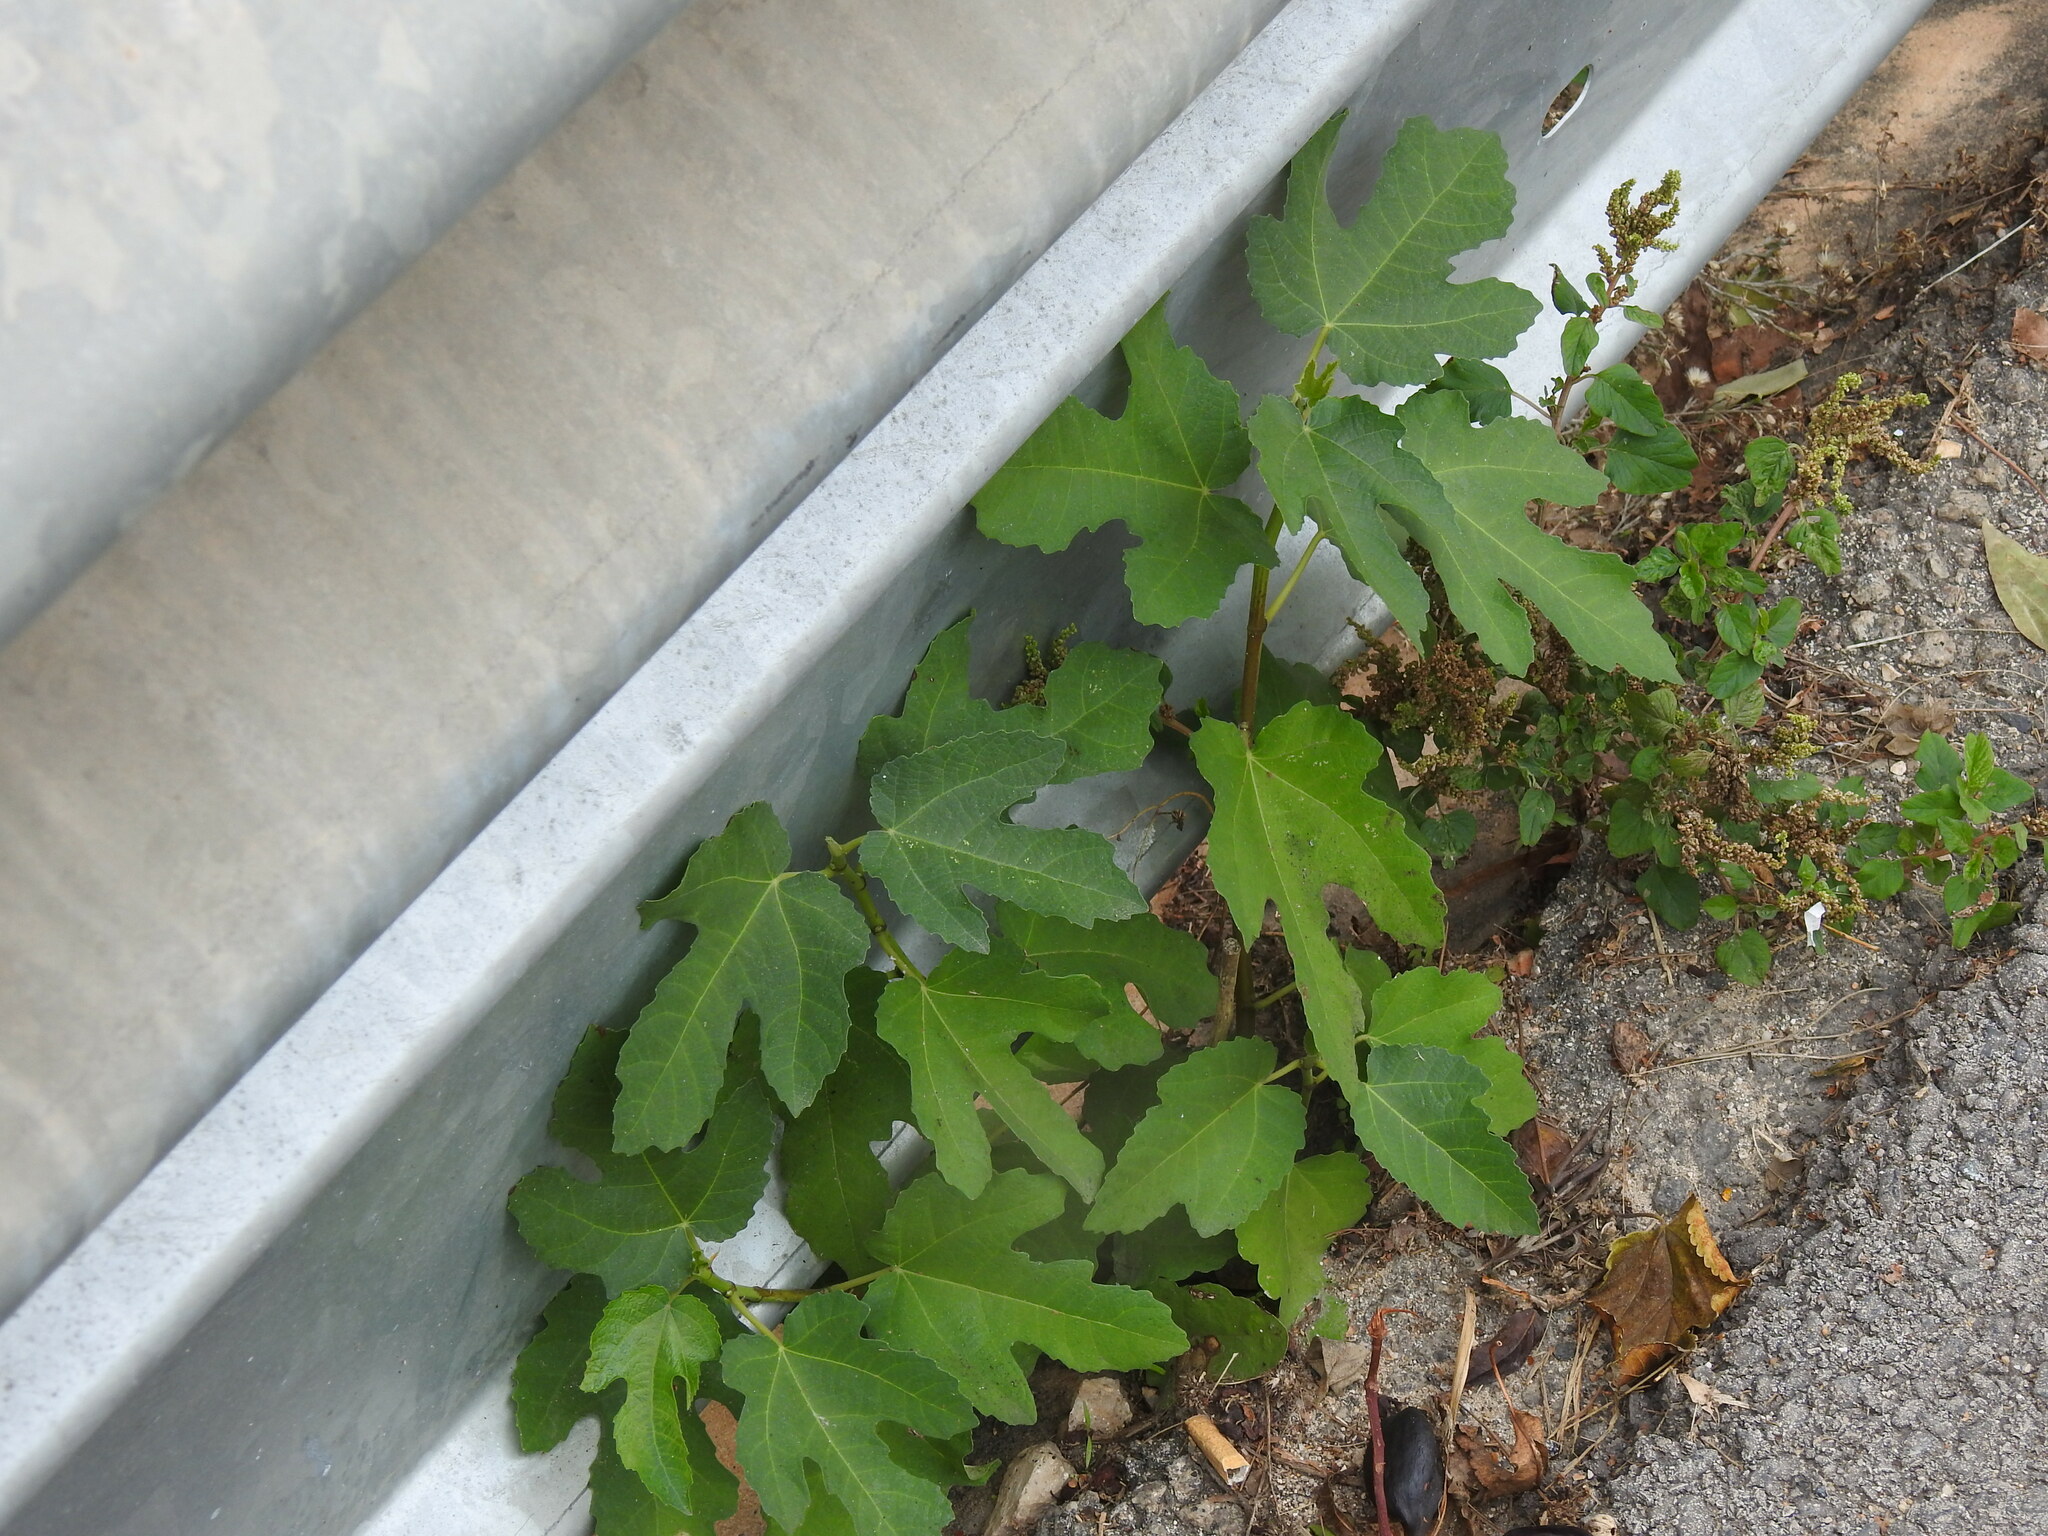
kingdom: Plantae
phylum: Tracheophyta
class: Magnoliopsida
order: Rosales
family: Moraceae
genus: Ficus
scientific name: Ficus carica
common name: Fig
